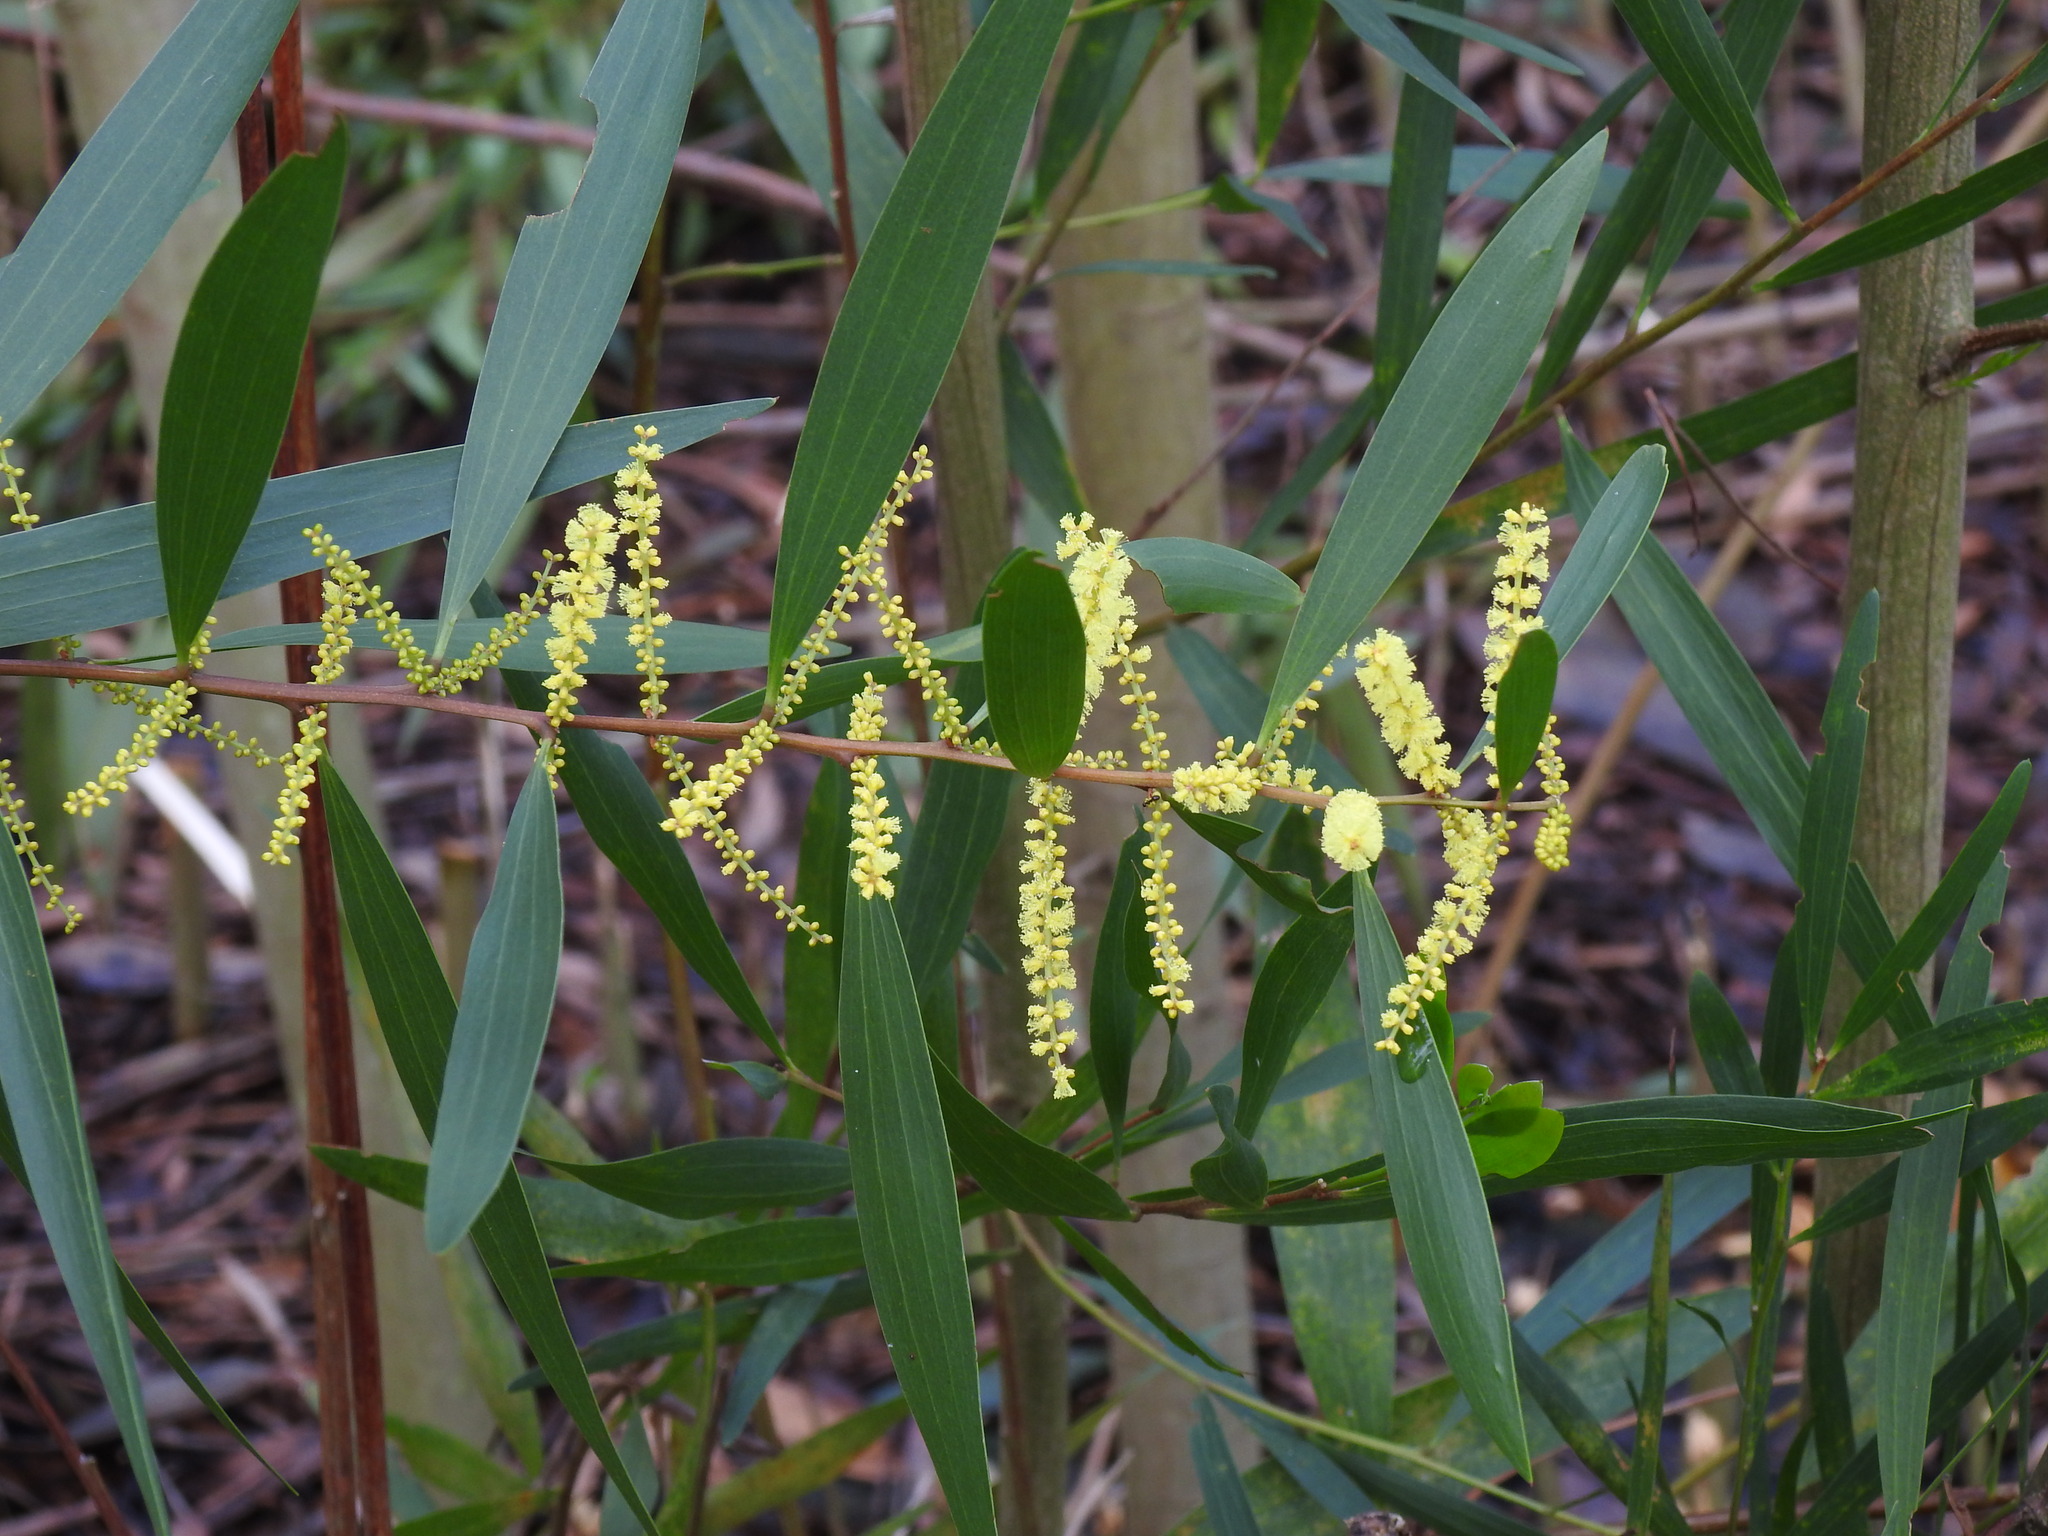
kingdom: Plantae
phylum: Tracheophyta
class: Magnoliopsida
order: Fabales
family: Fabaceae
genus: Acacia
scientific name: Acacia longifolia
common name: Sydney golden wattle
